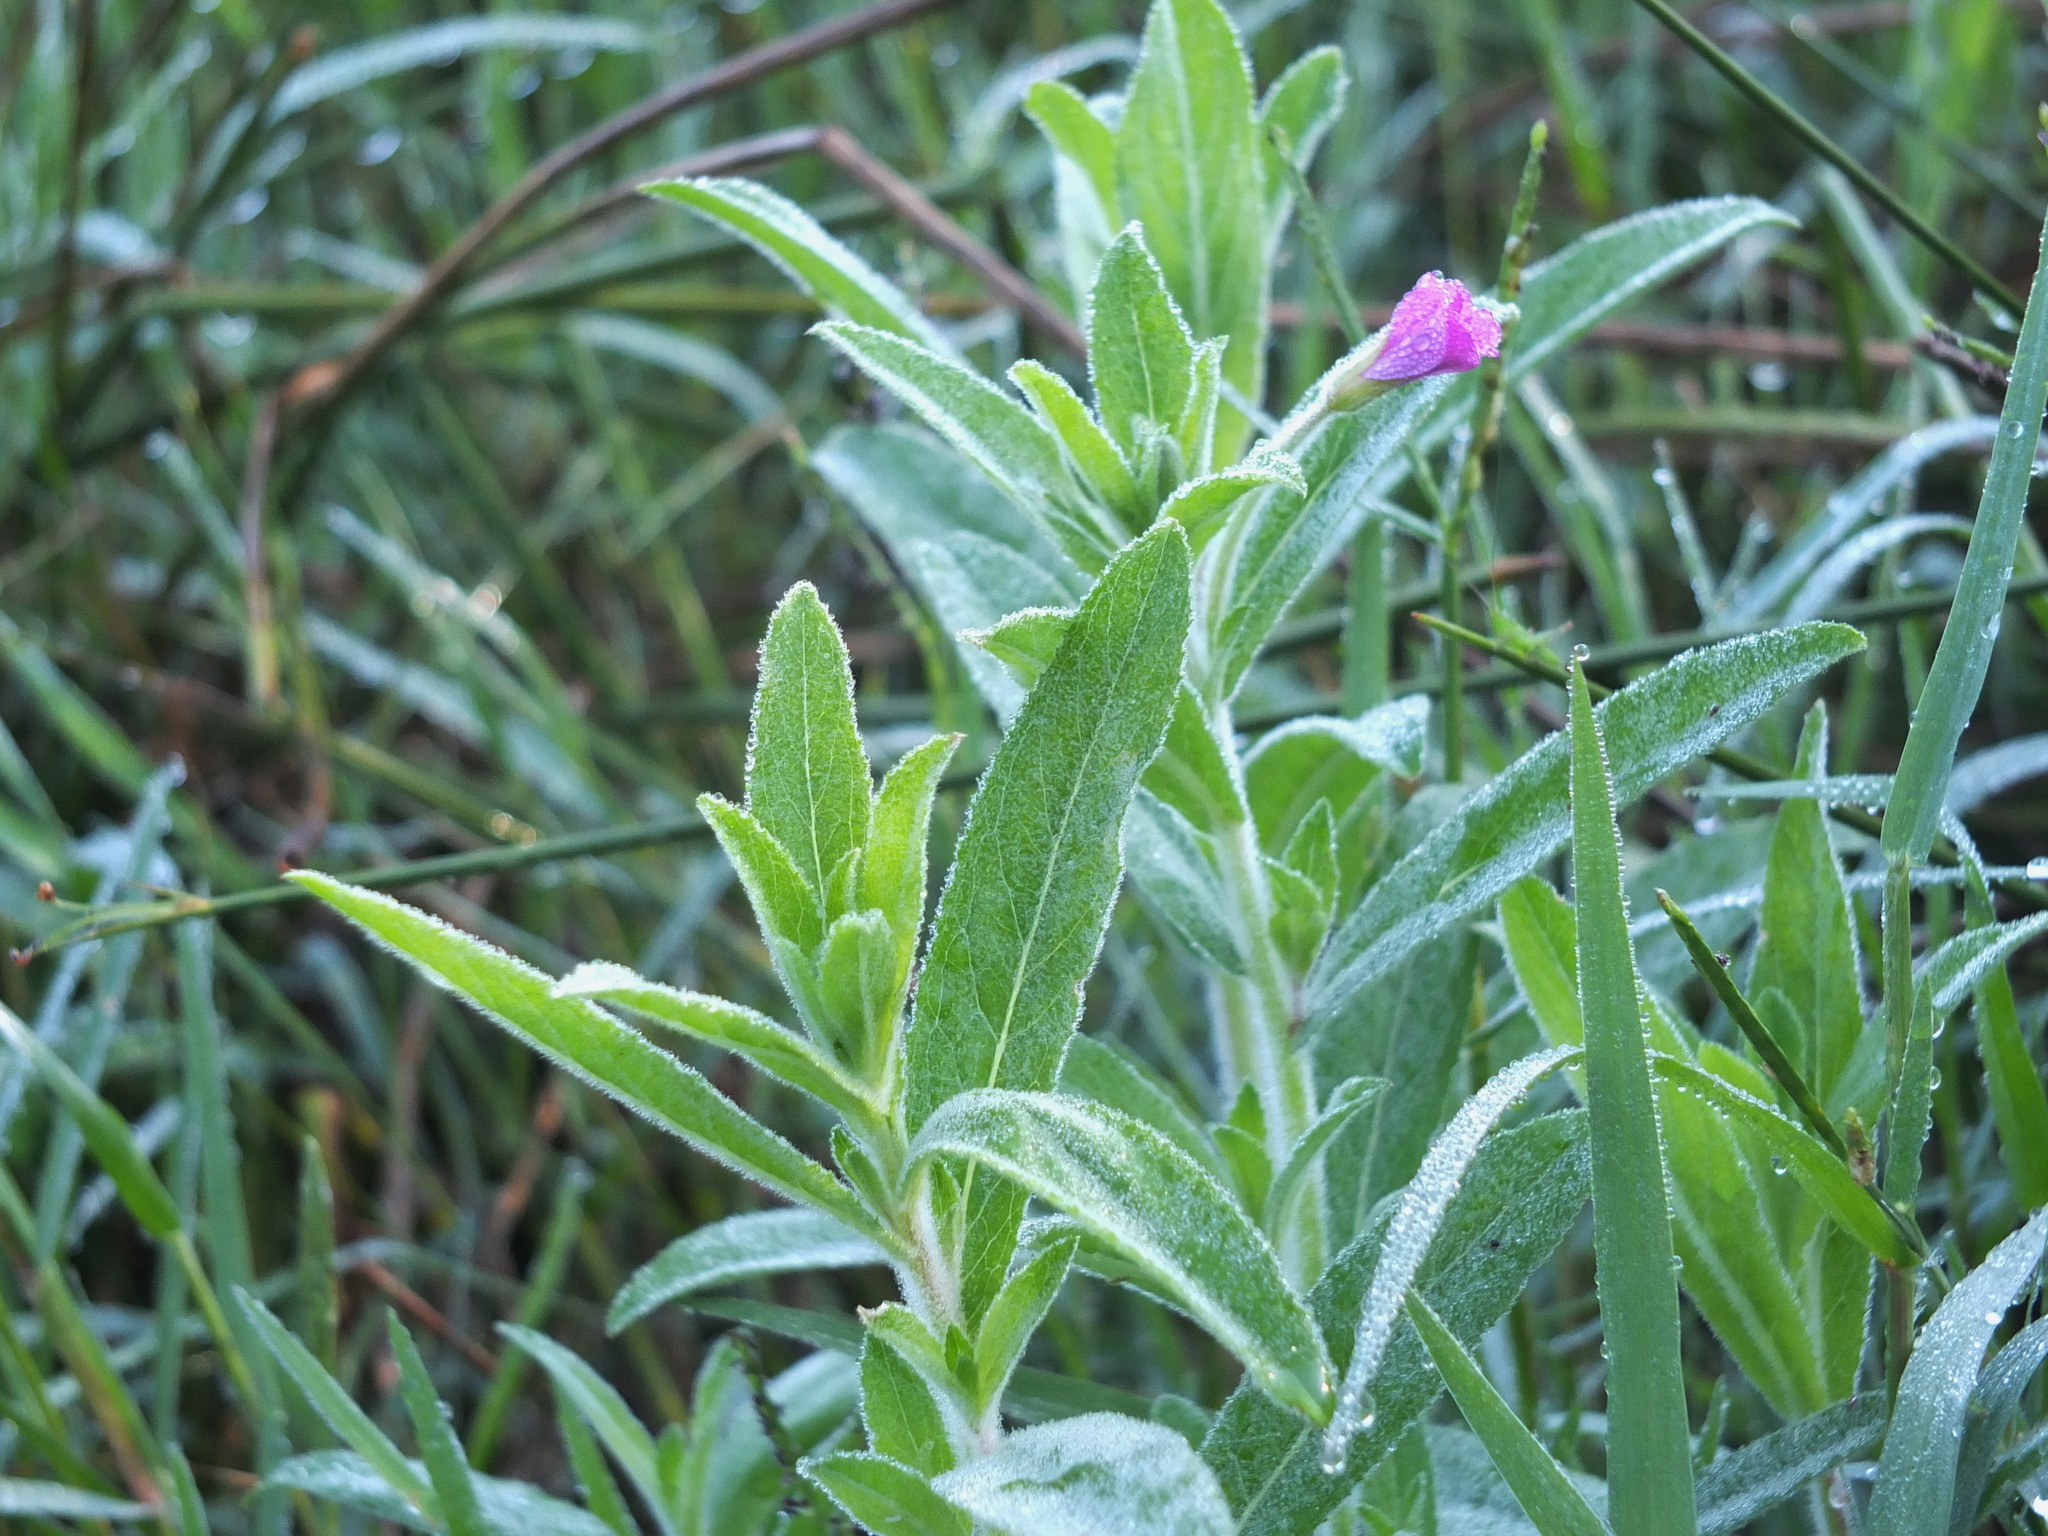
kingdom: Plantae
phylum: Tracheophyta
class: Magnoliopsida
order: Myrtales
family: Onagraceae
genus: Epilobium
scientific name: Epilobium hirsutum
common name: Great willowherb
